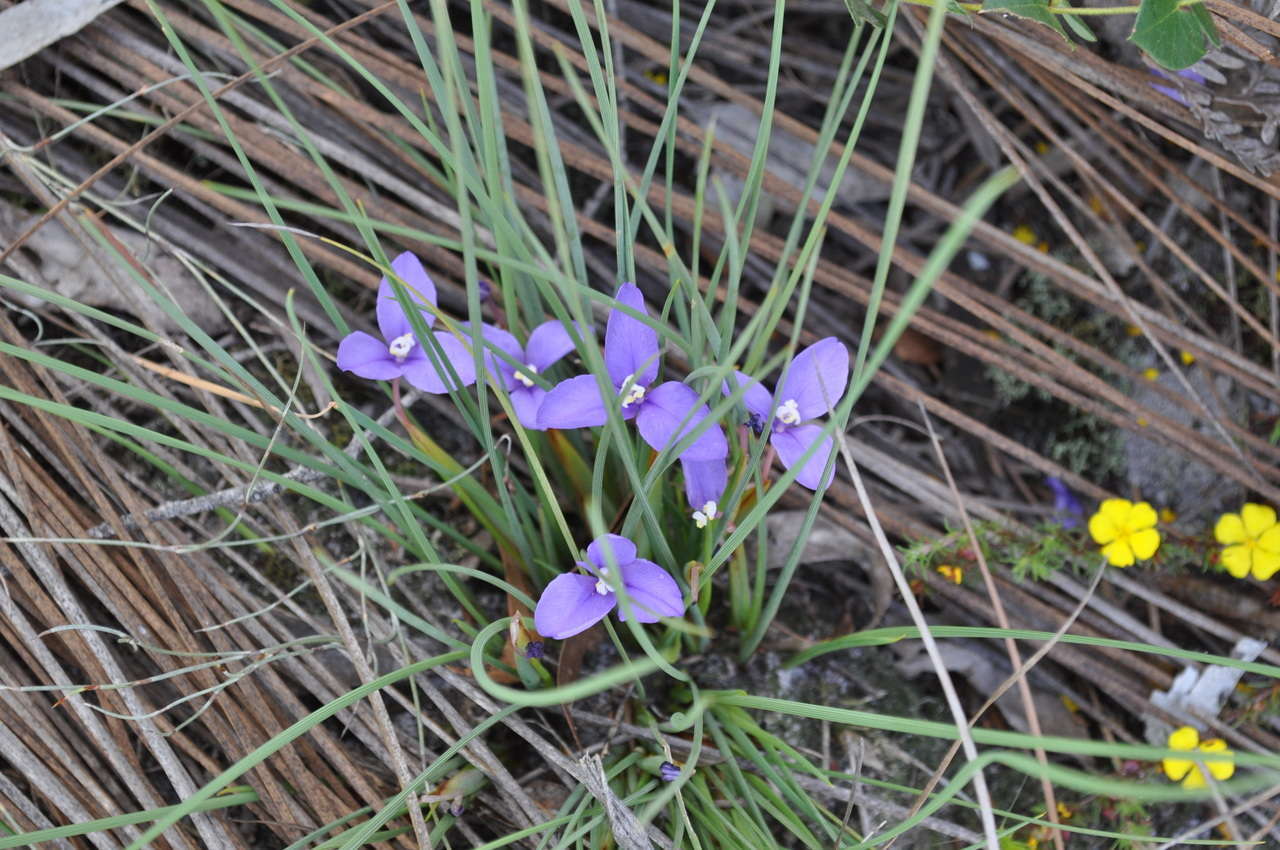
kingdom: Plantae
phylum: Tracheophyta
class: Liliopsida
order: Asparagales
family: Iridaceae
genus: Patersonia
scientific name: Patersonia fragilis
